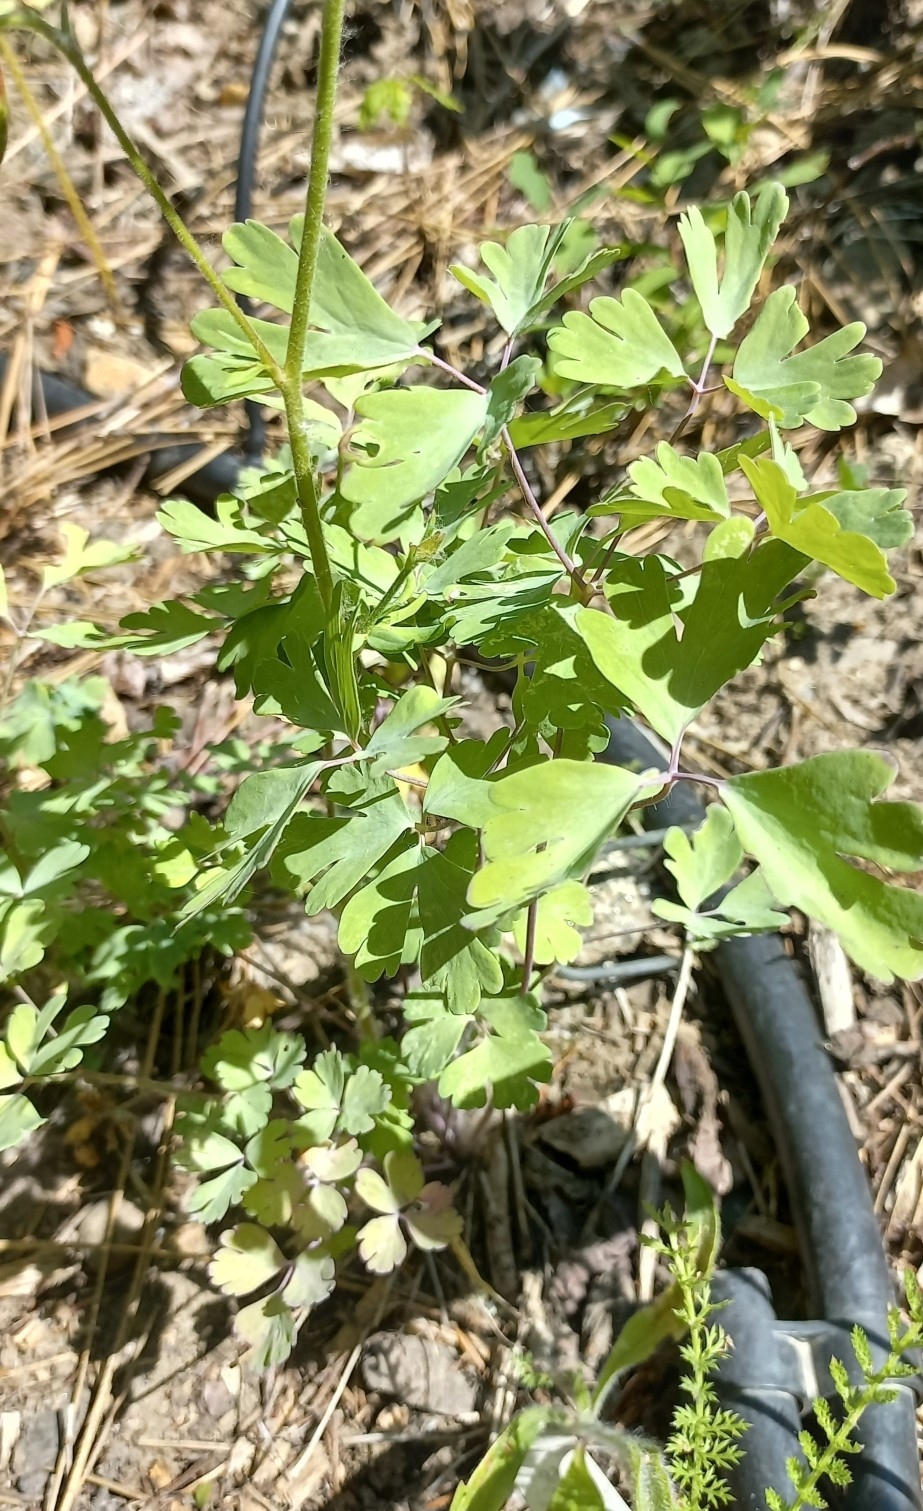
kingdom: Plantae
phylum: Tracheophyta
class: Magnoliopsida
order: Ranunculales
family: Ranunculaceae
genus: Aquilegia
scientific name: Aquilegia formosa
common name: Sitka columbine
